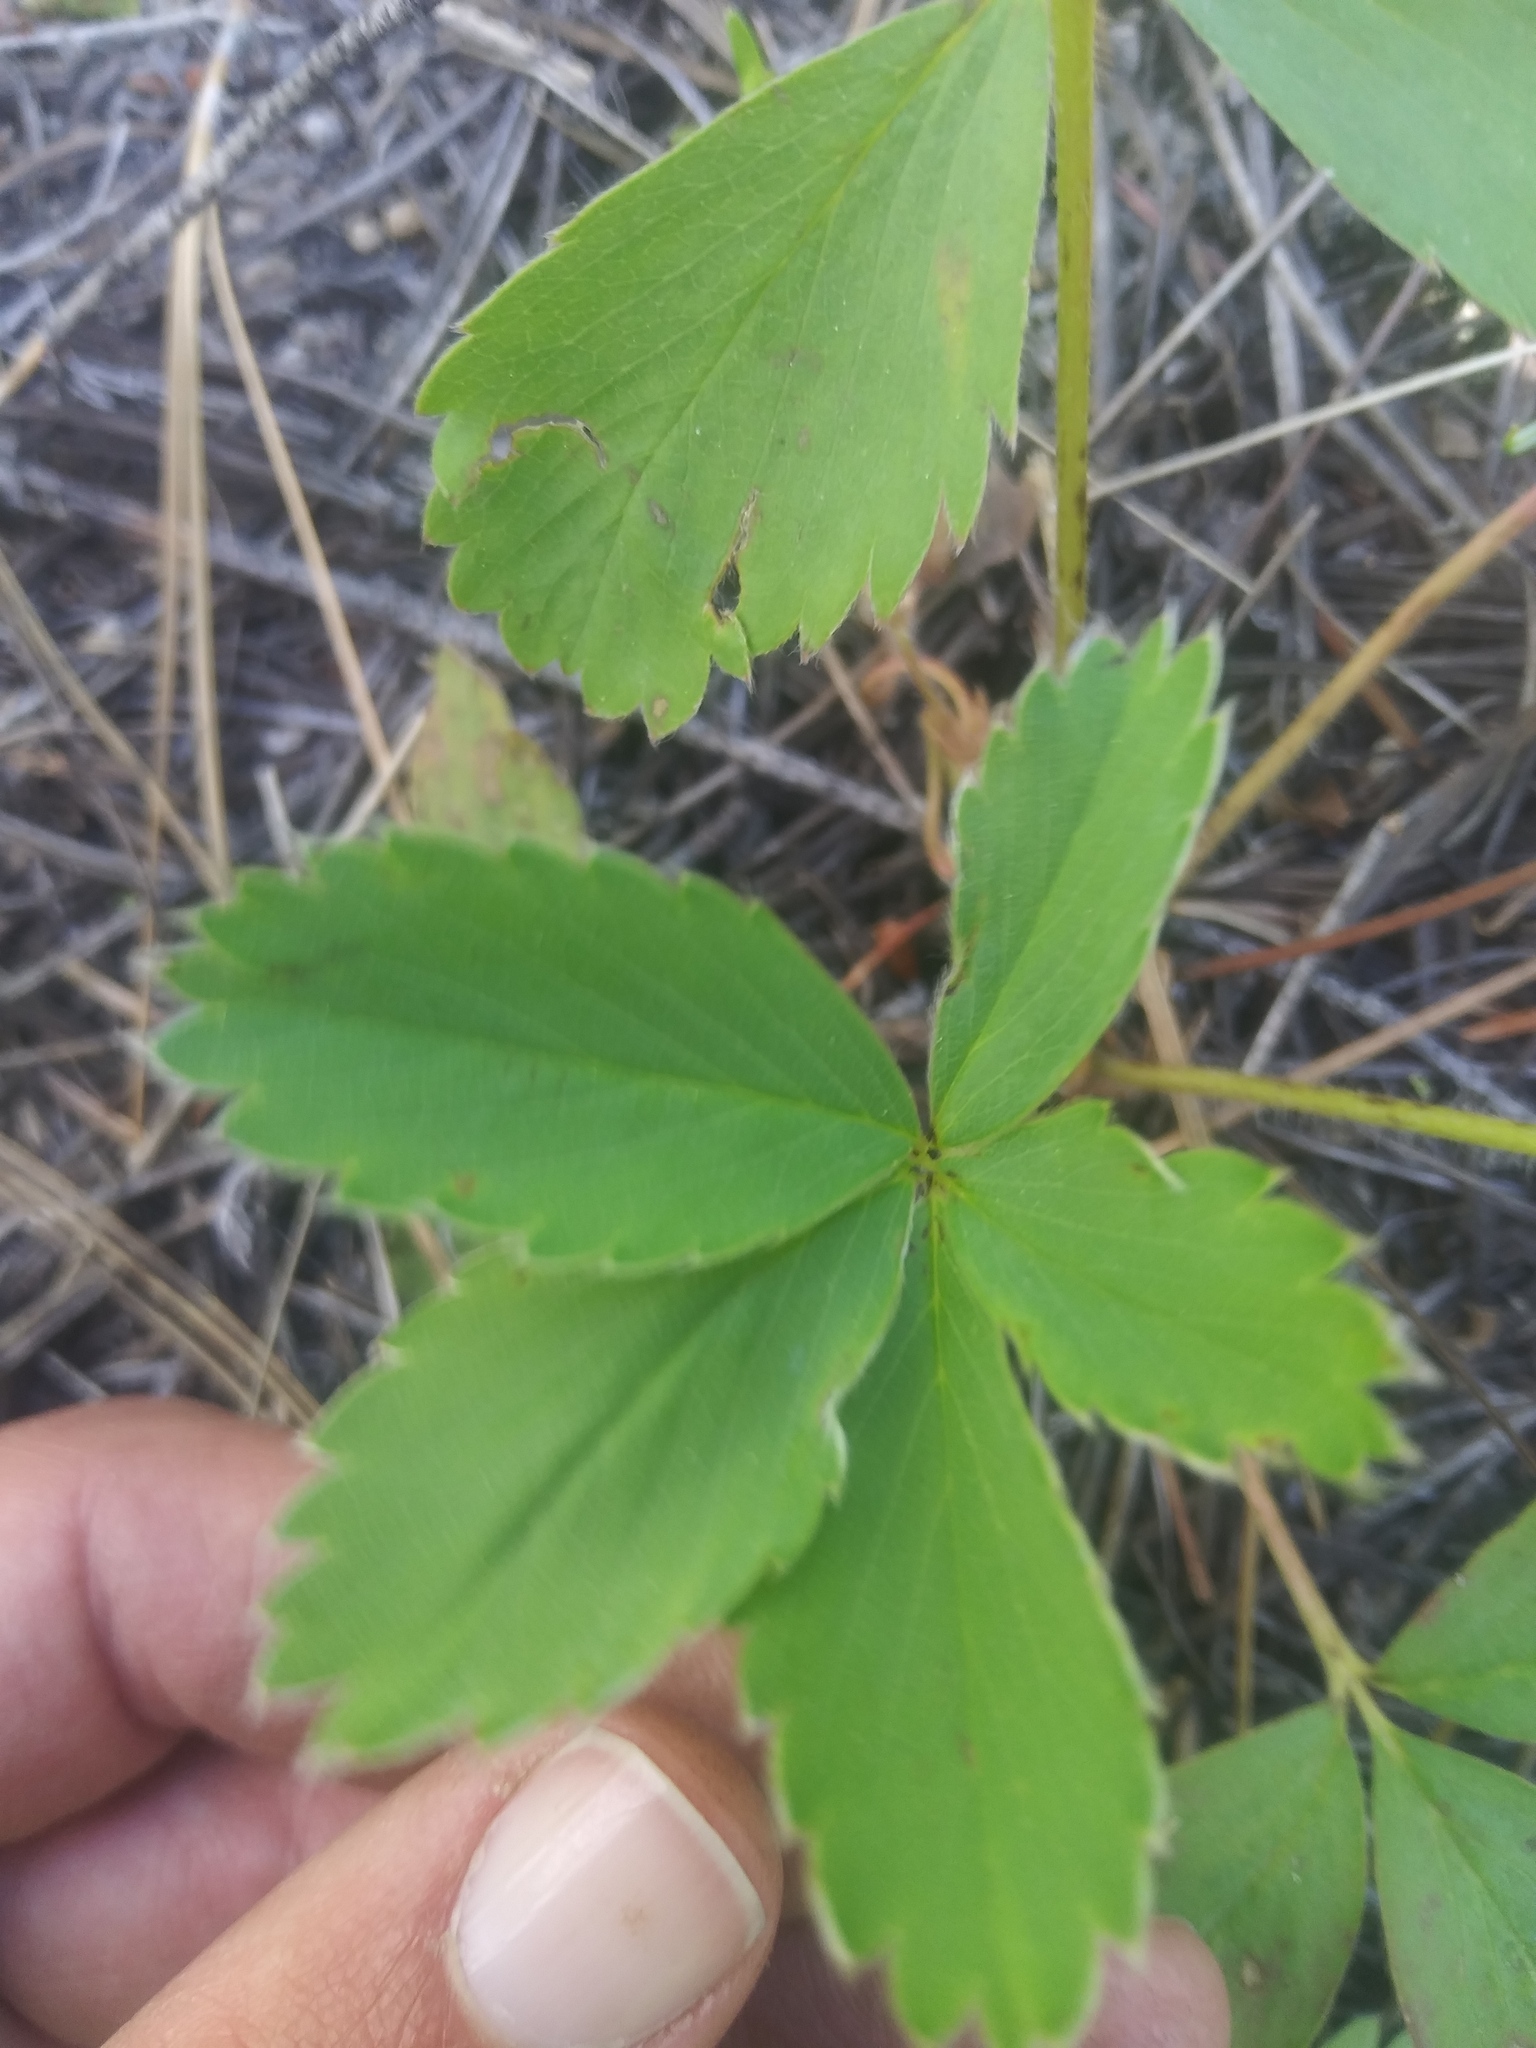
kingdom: Plantae
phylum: Tracheophyta
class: Magnoliopsida
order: Rosales
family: Rosaceae
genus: Fragaria
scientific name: Fragaria virginiana
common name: Thickleaved wild strawberry
